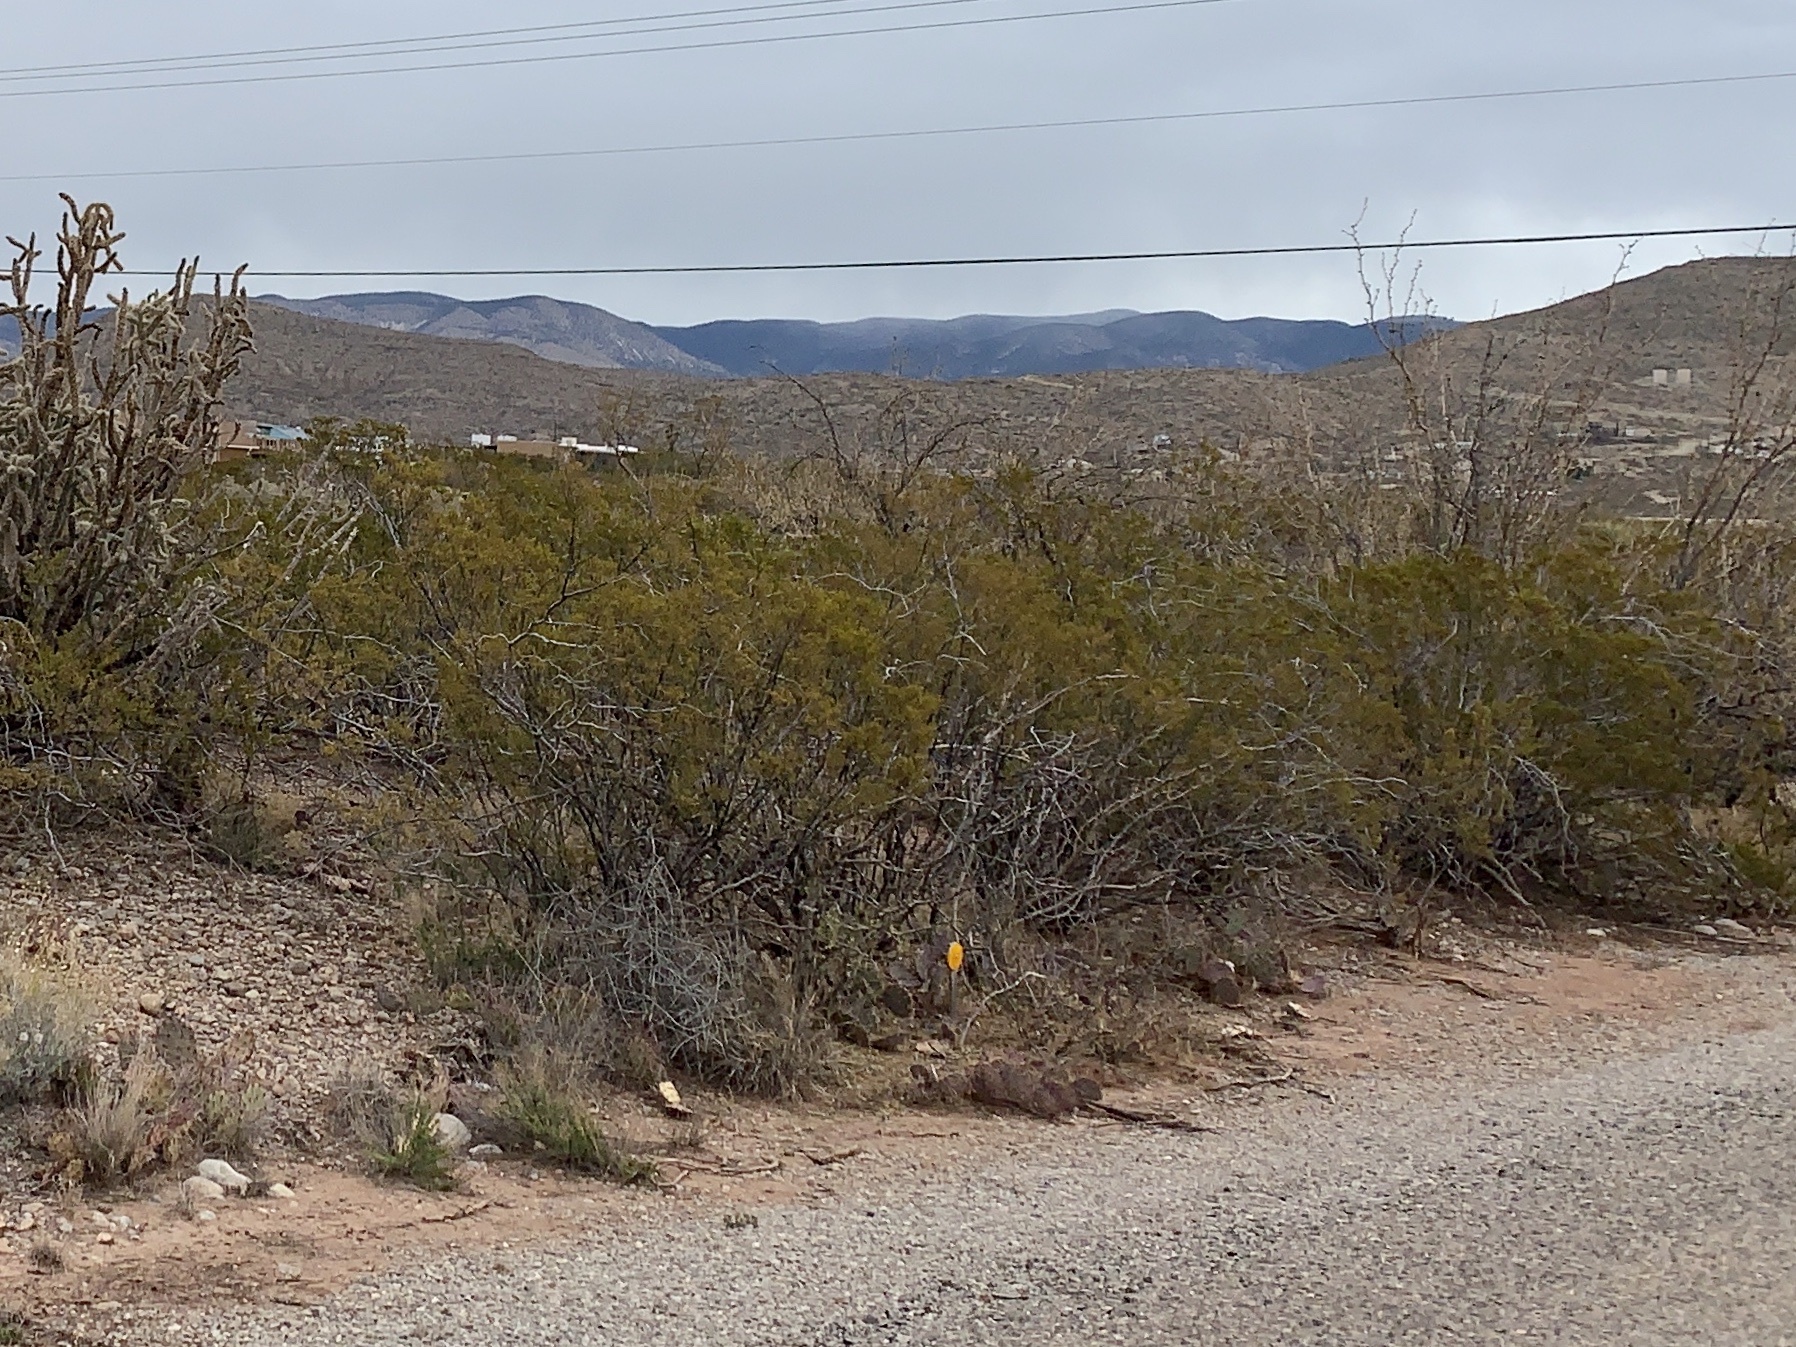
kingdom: Plantae
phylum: Tracheophyta
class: Magnoliopsida
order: Zygophyllales
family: Zygophyllaceae
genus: Larrea
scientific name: Larrea tridentata
